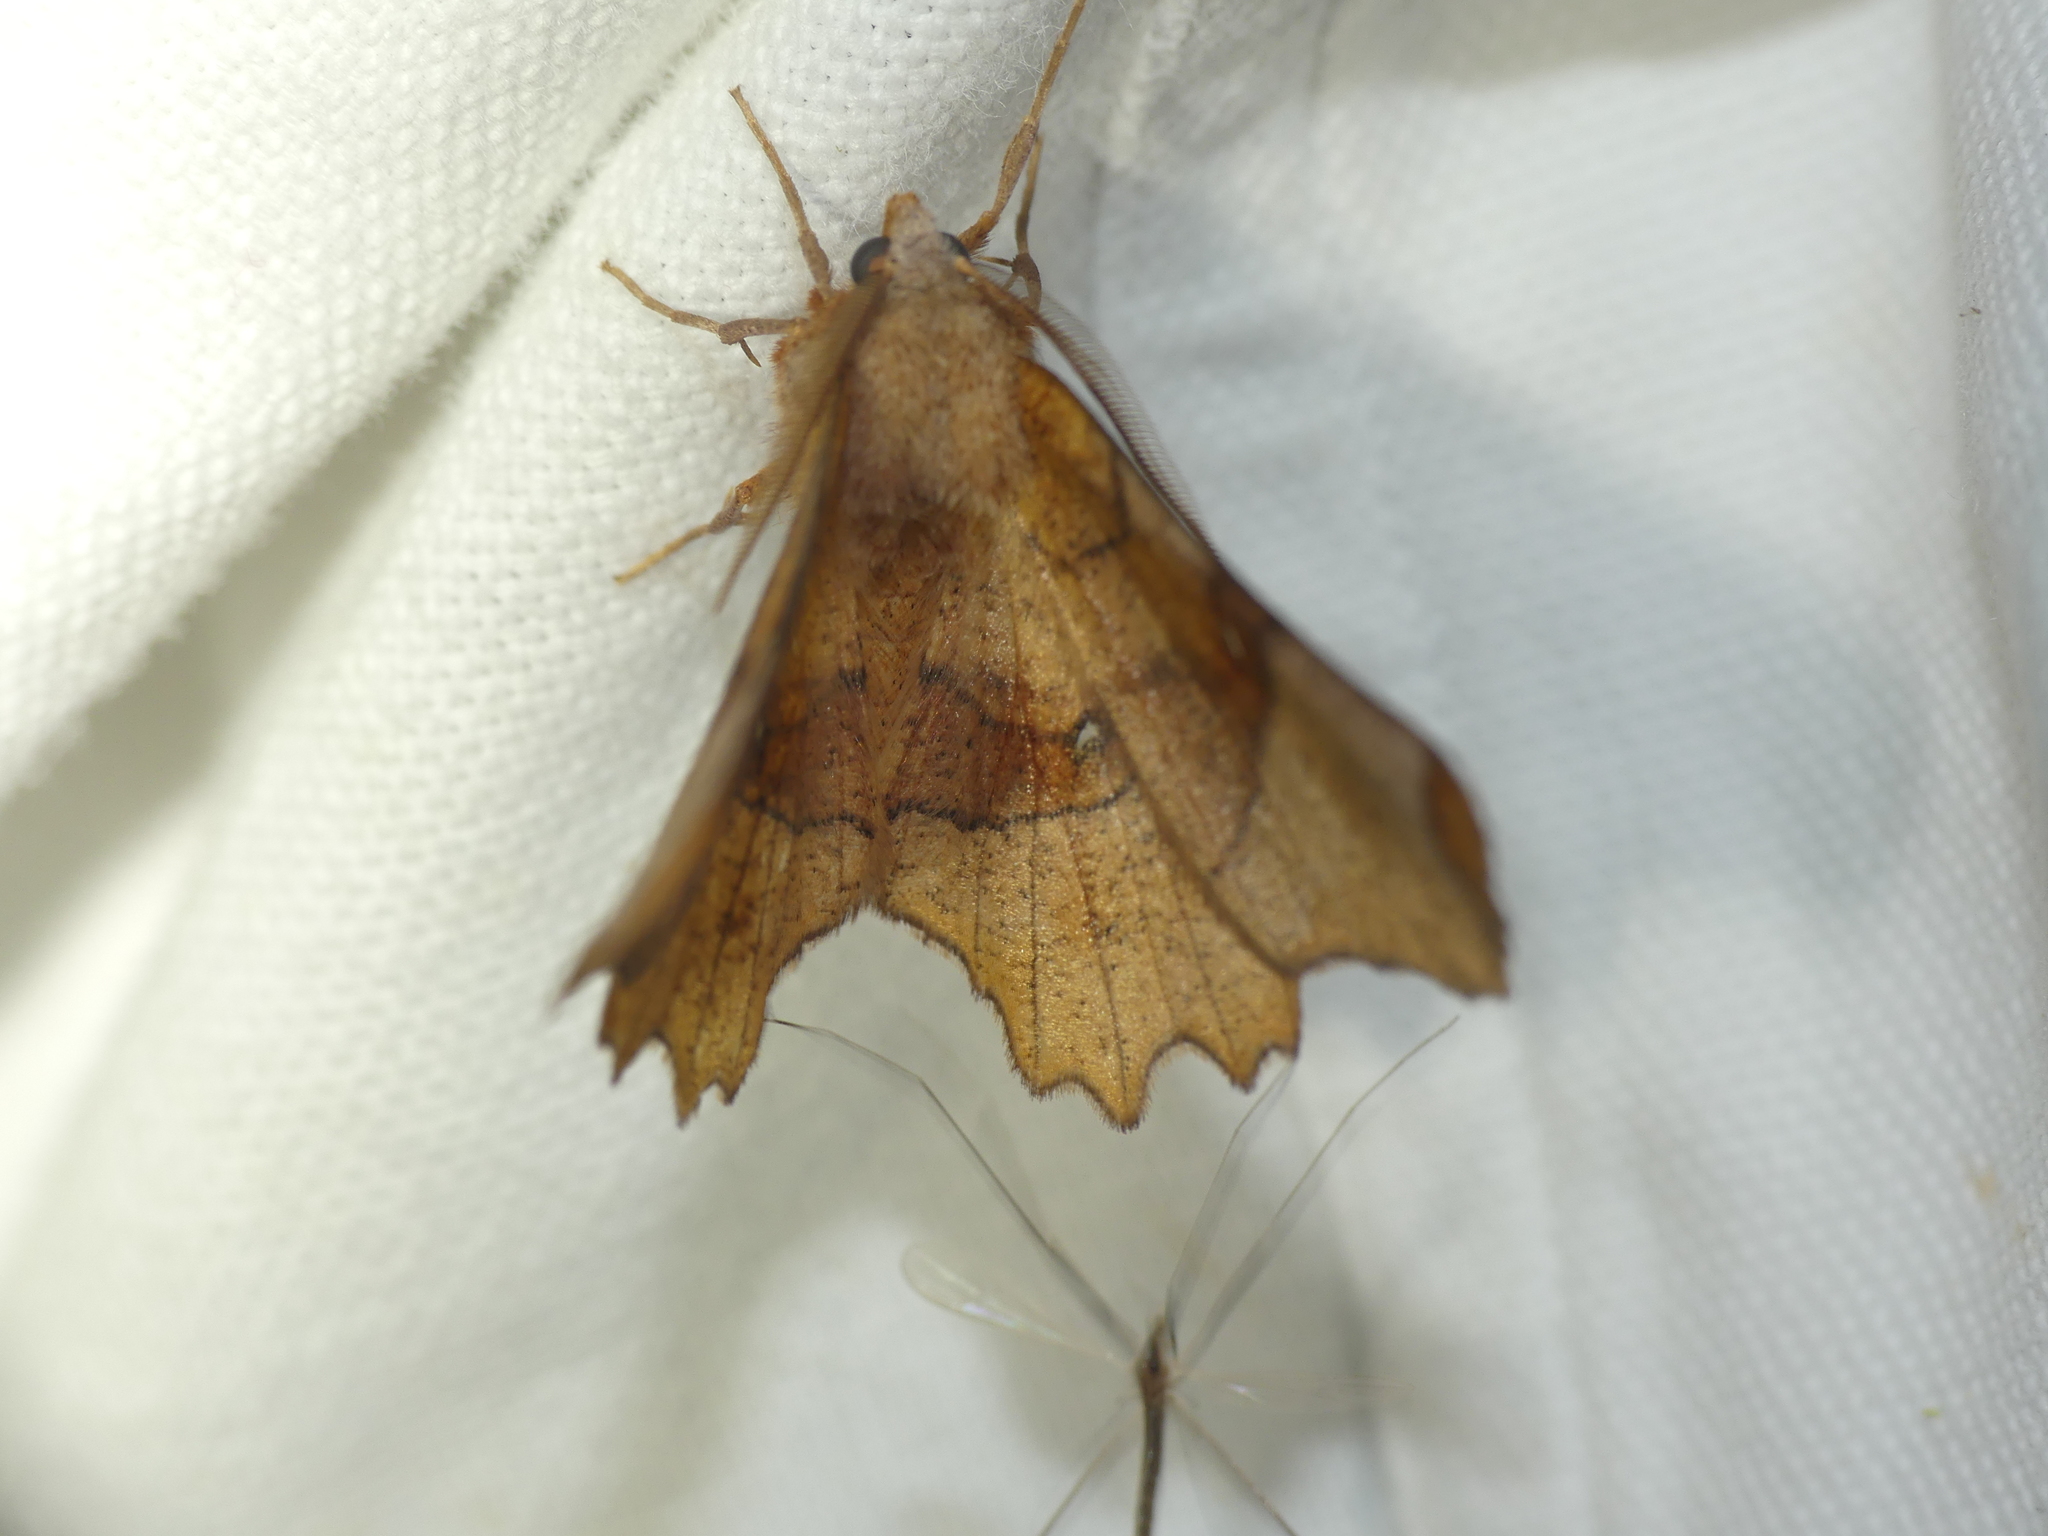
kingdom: Animalia
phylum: Arthropoda
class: Insecta
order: Lepidoptera
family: Geometridae
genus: Selenia
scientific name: Selenia lunularia
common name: Lunar thorn
